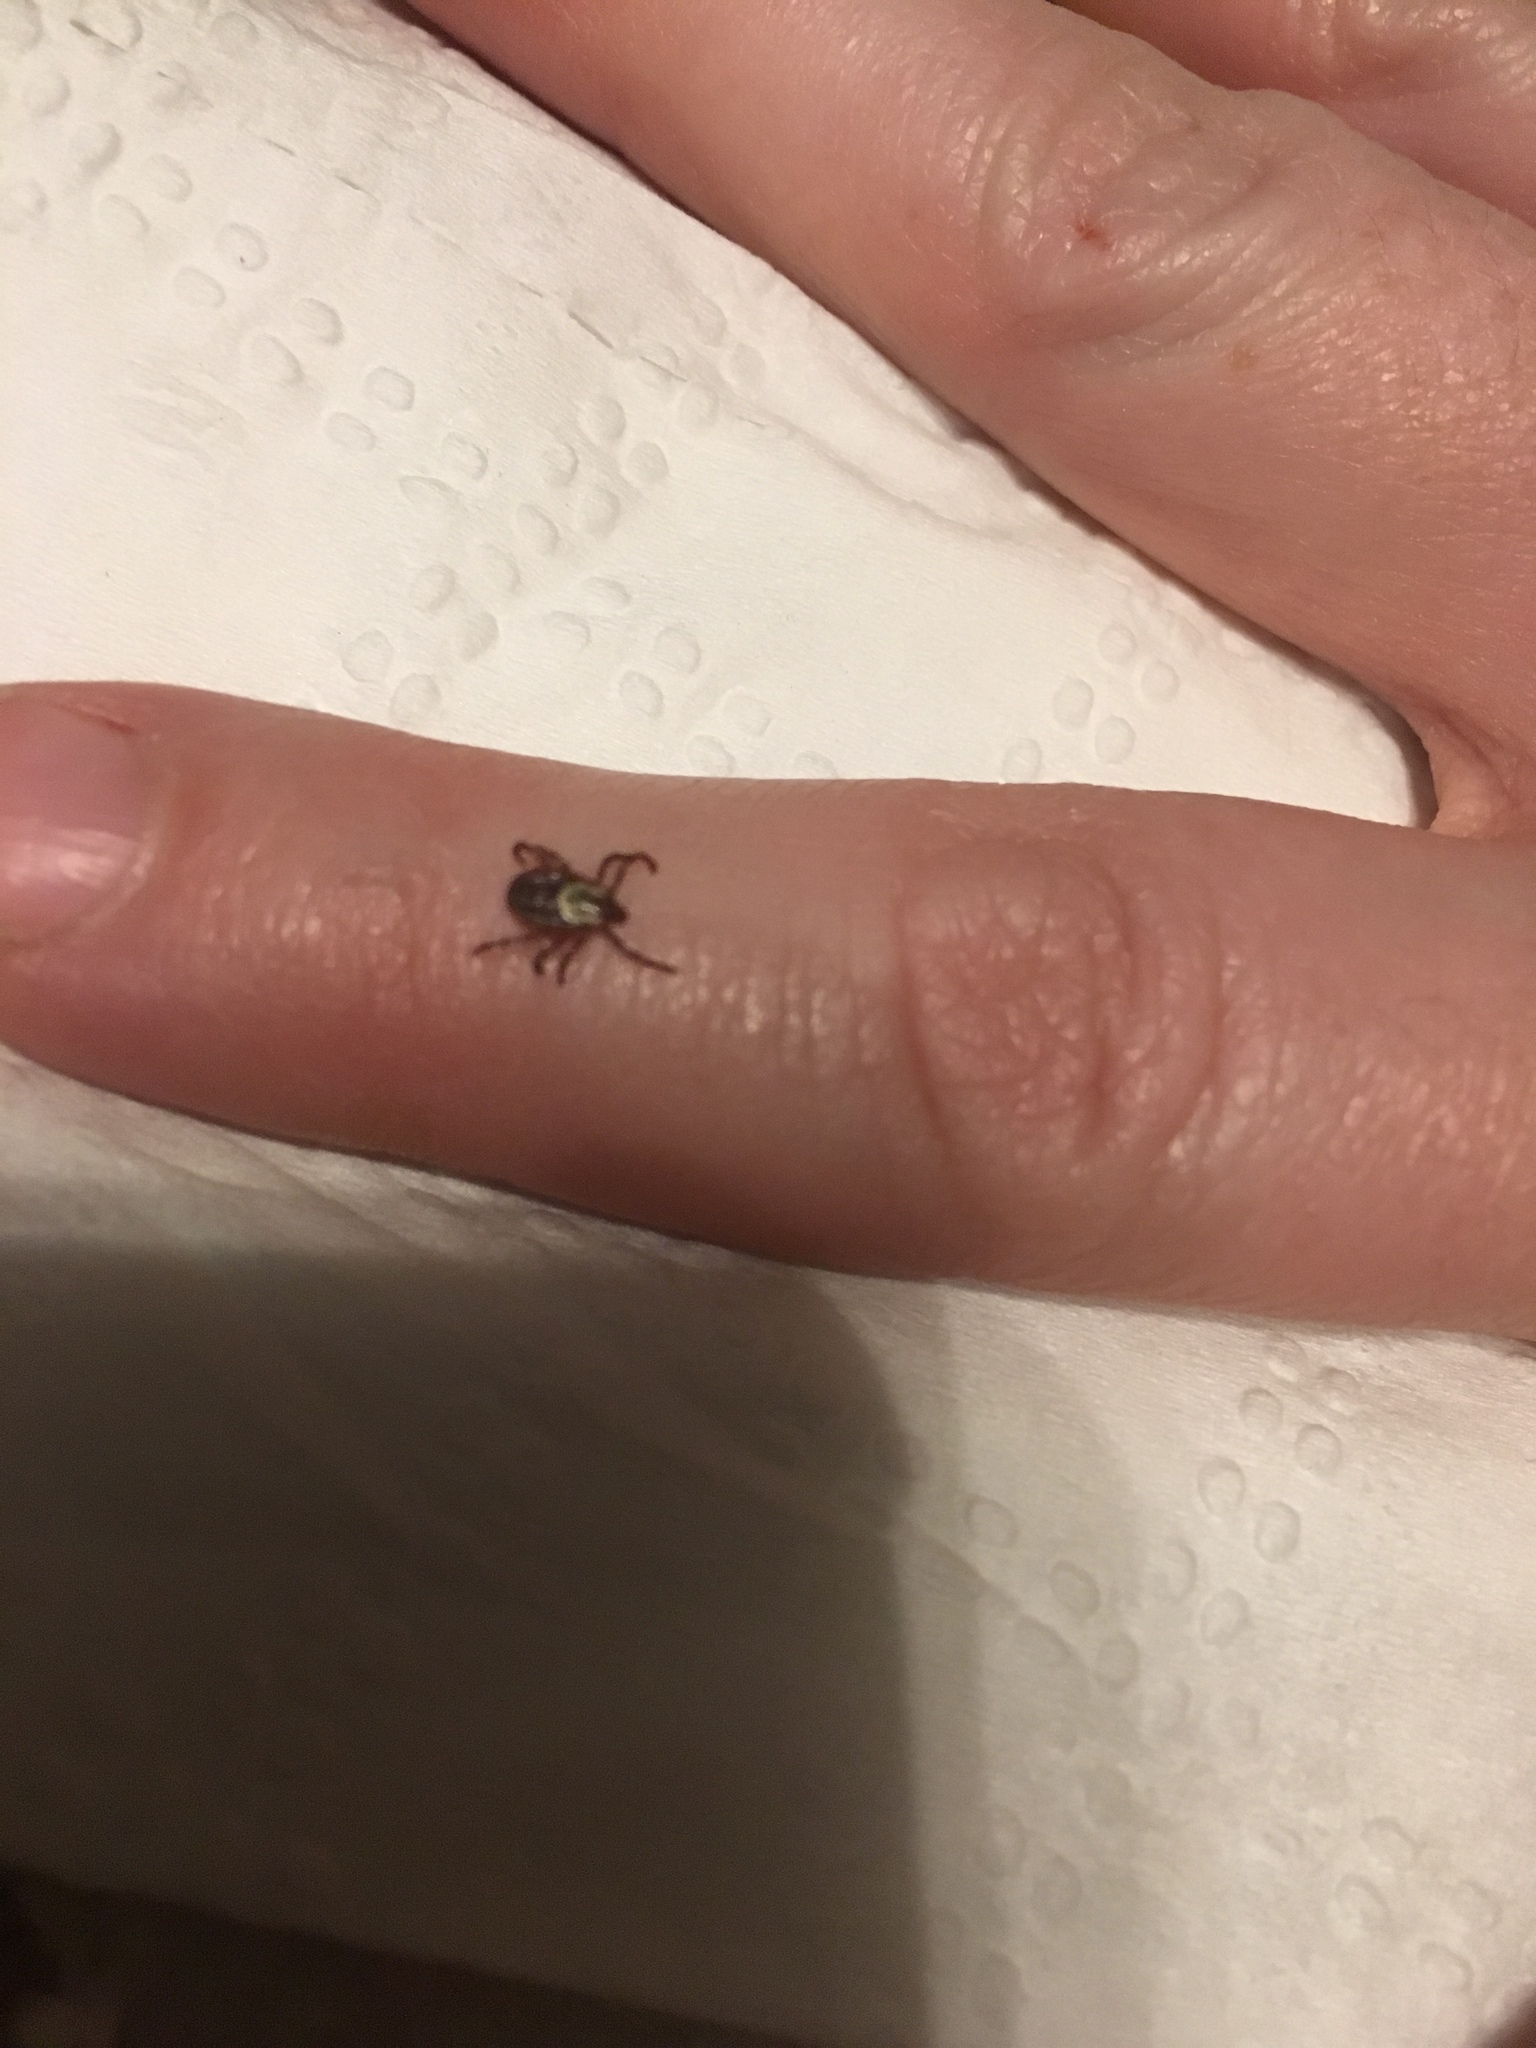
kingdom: Animalia
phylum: Arthropoda
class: Arachnida
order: Ixodida
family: Ixodidae
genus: Dermacentor
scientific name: Dermacentor variabilis
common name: American dog tick
